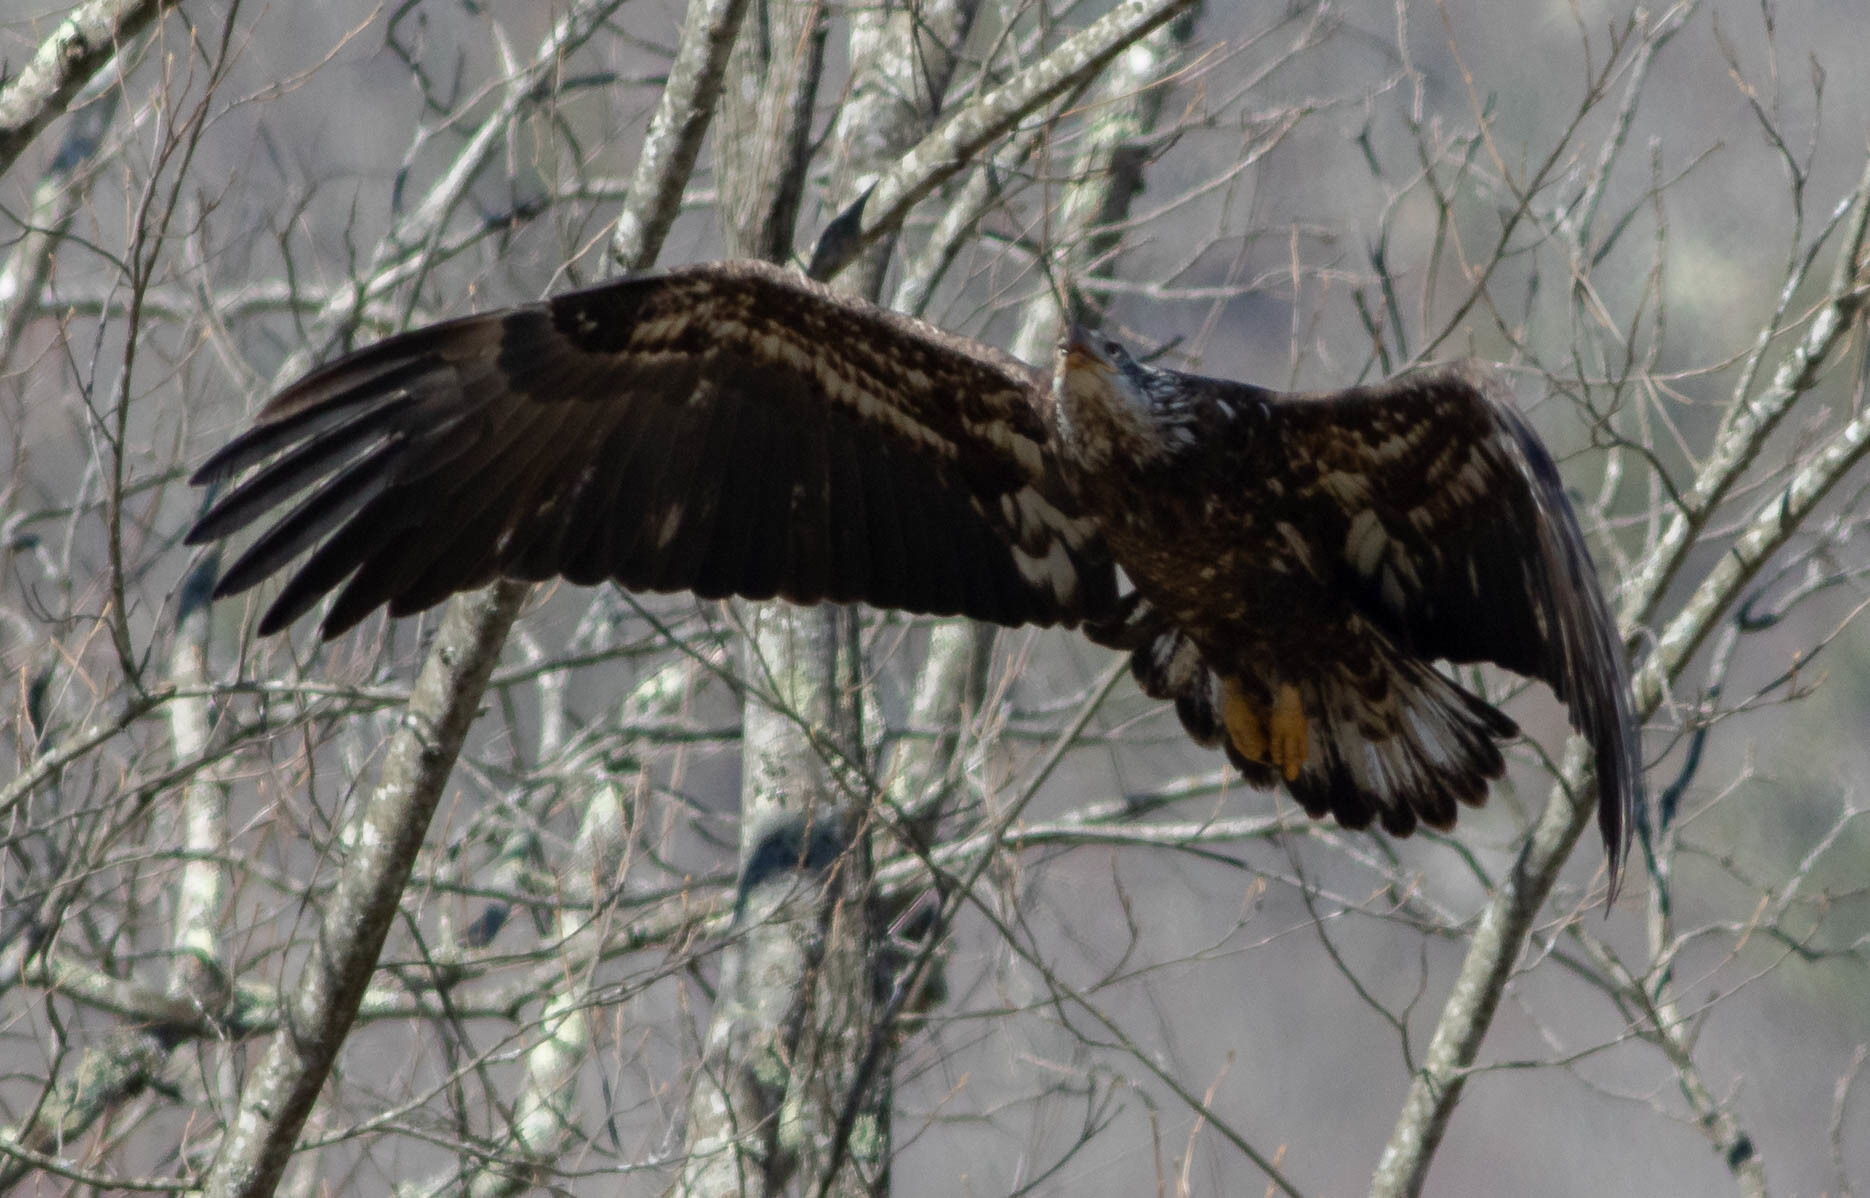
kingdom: Animalia
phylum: Chordata
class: Aves
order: Accipitriformes
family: Accipitridae
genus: Haliaeetus
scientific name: Haliaeetus leucocephalus
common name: Bald eagle
